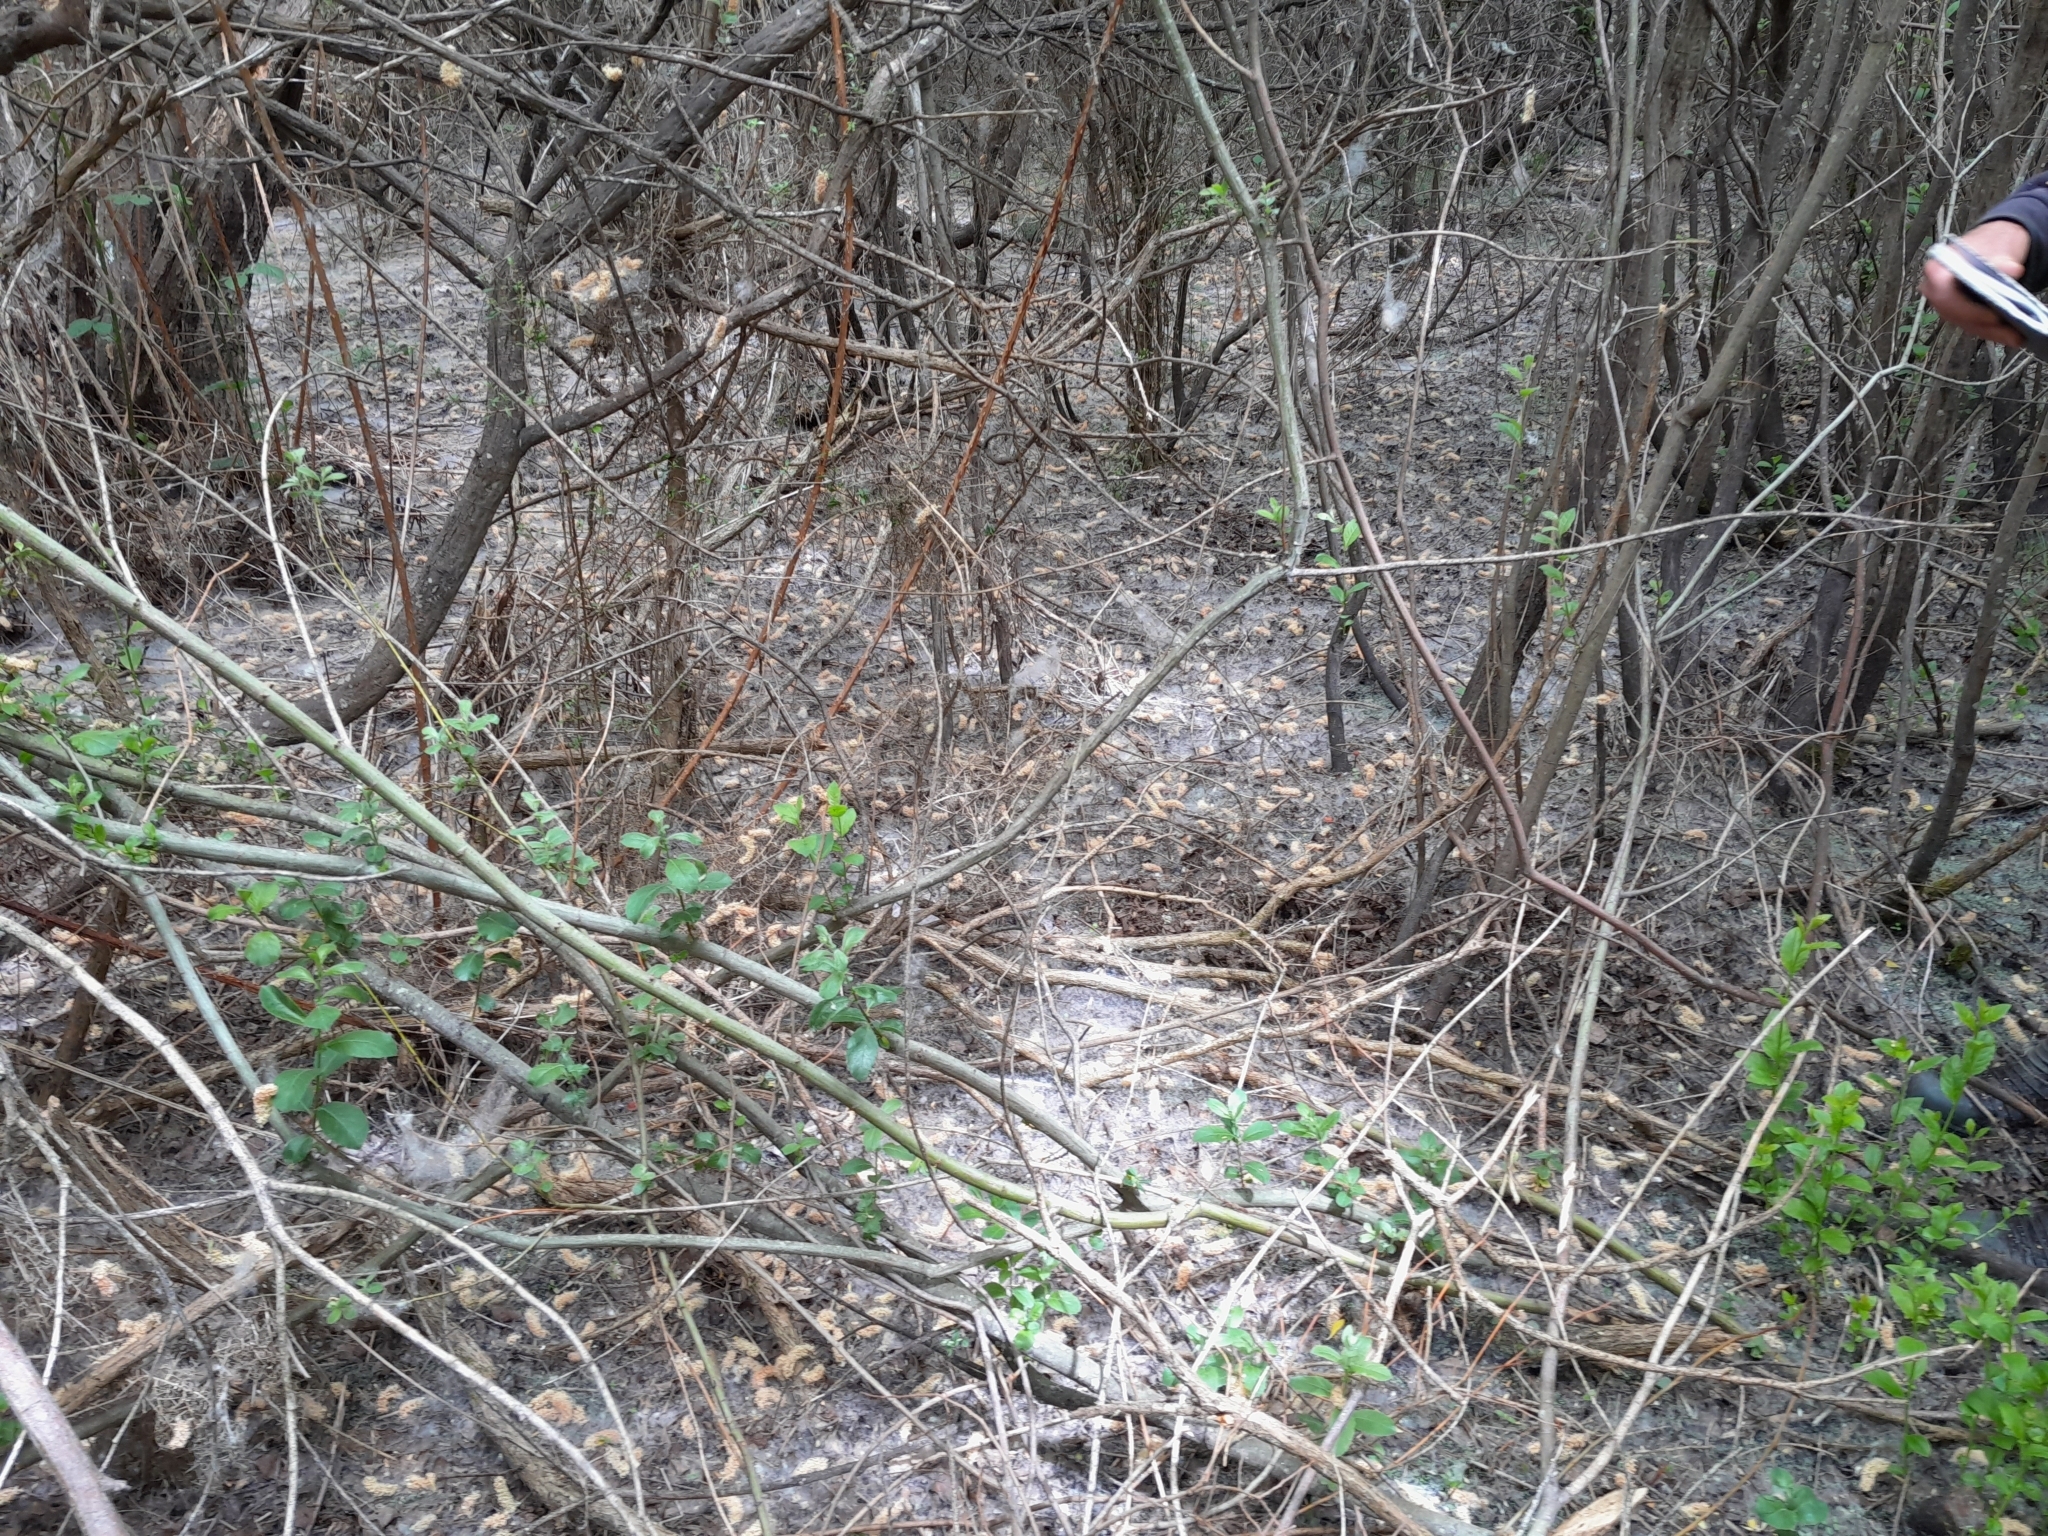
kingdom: Plantae
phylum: Tracheophyta
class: Magnoliopsida
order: Malpighiales
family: Salicaceae
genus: Salix
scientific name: Salix cinerea
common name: Common sallow
